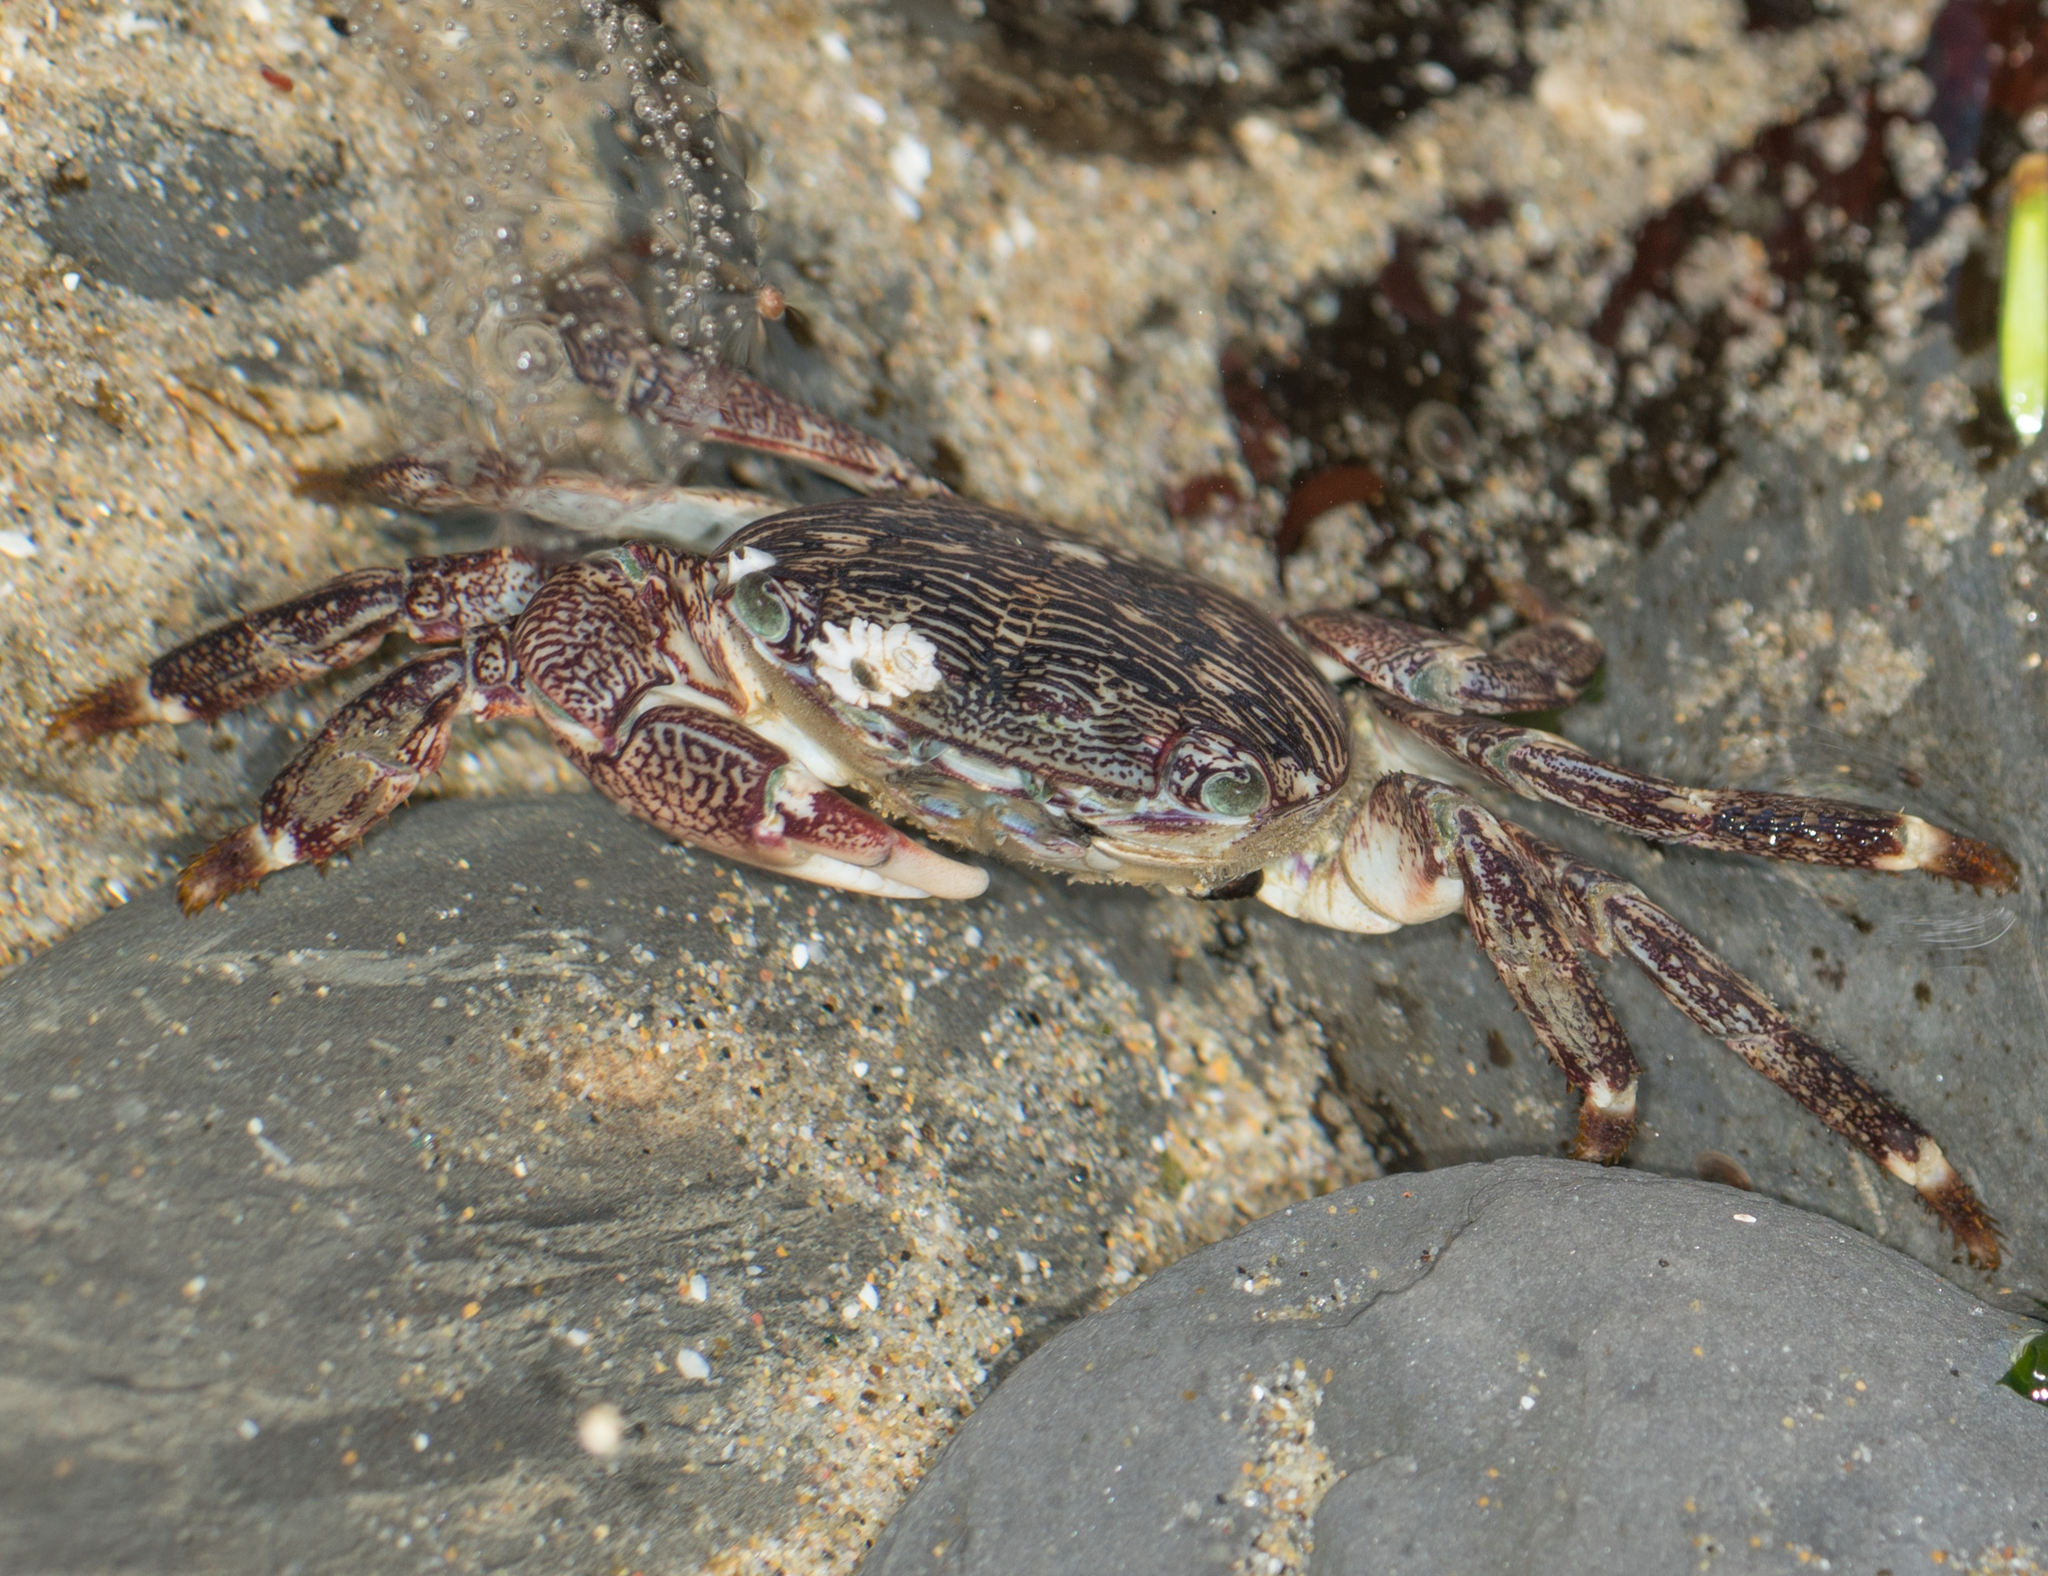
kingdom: Animalia
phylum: Arthropoda
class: Malacostraca
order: Decapoda
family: Grapsidae
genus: Pachygrapsus
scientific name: Pachygrapsus crassipes
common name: Striped shore crab
